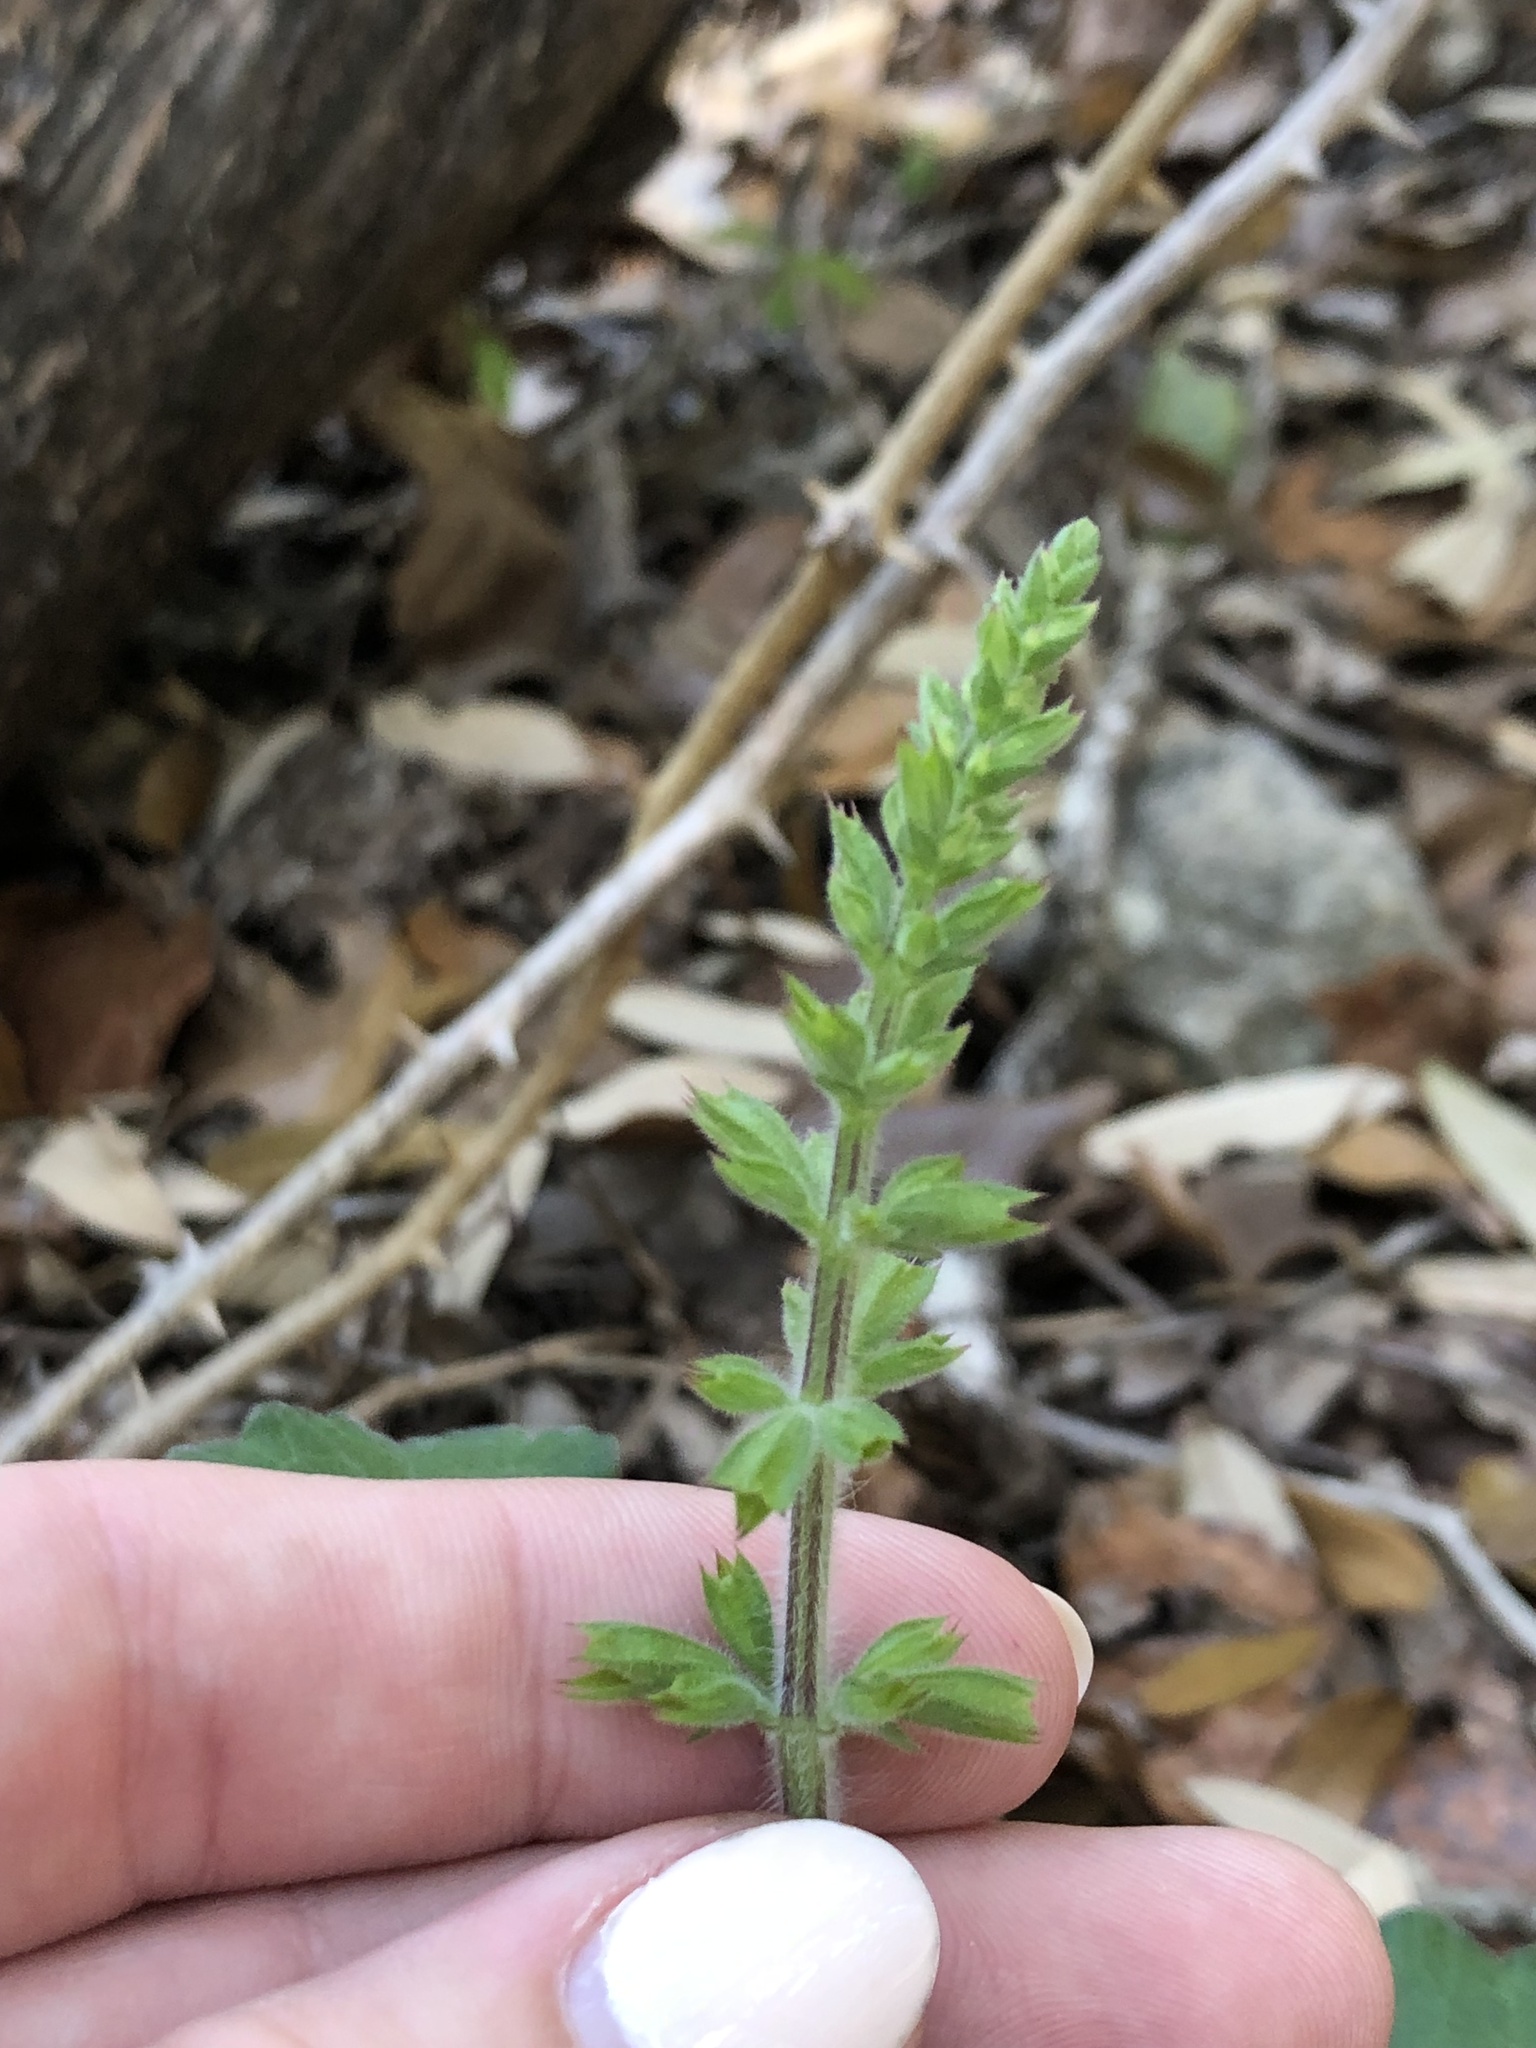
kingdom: Plantae
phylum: Tracheophyta
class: Magnoliopsida
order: Lamiales
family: Lamiaceae
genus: Salvia
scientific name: Salvia roemeriana
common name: Cedar sage
